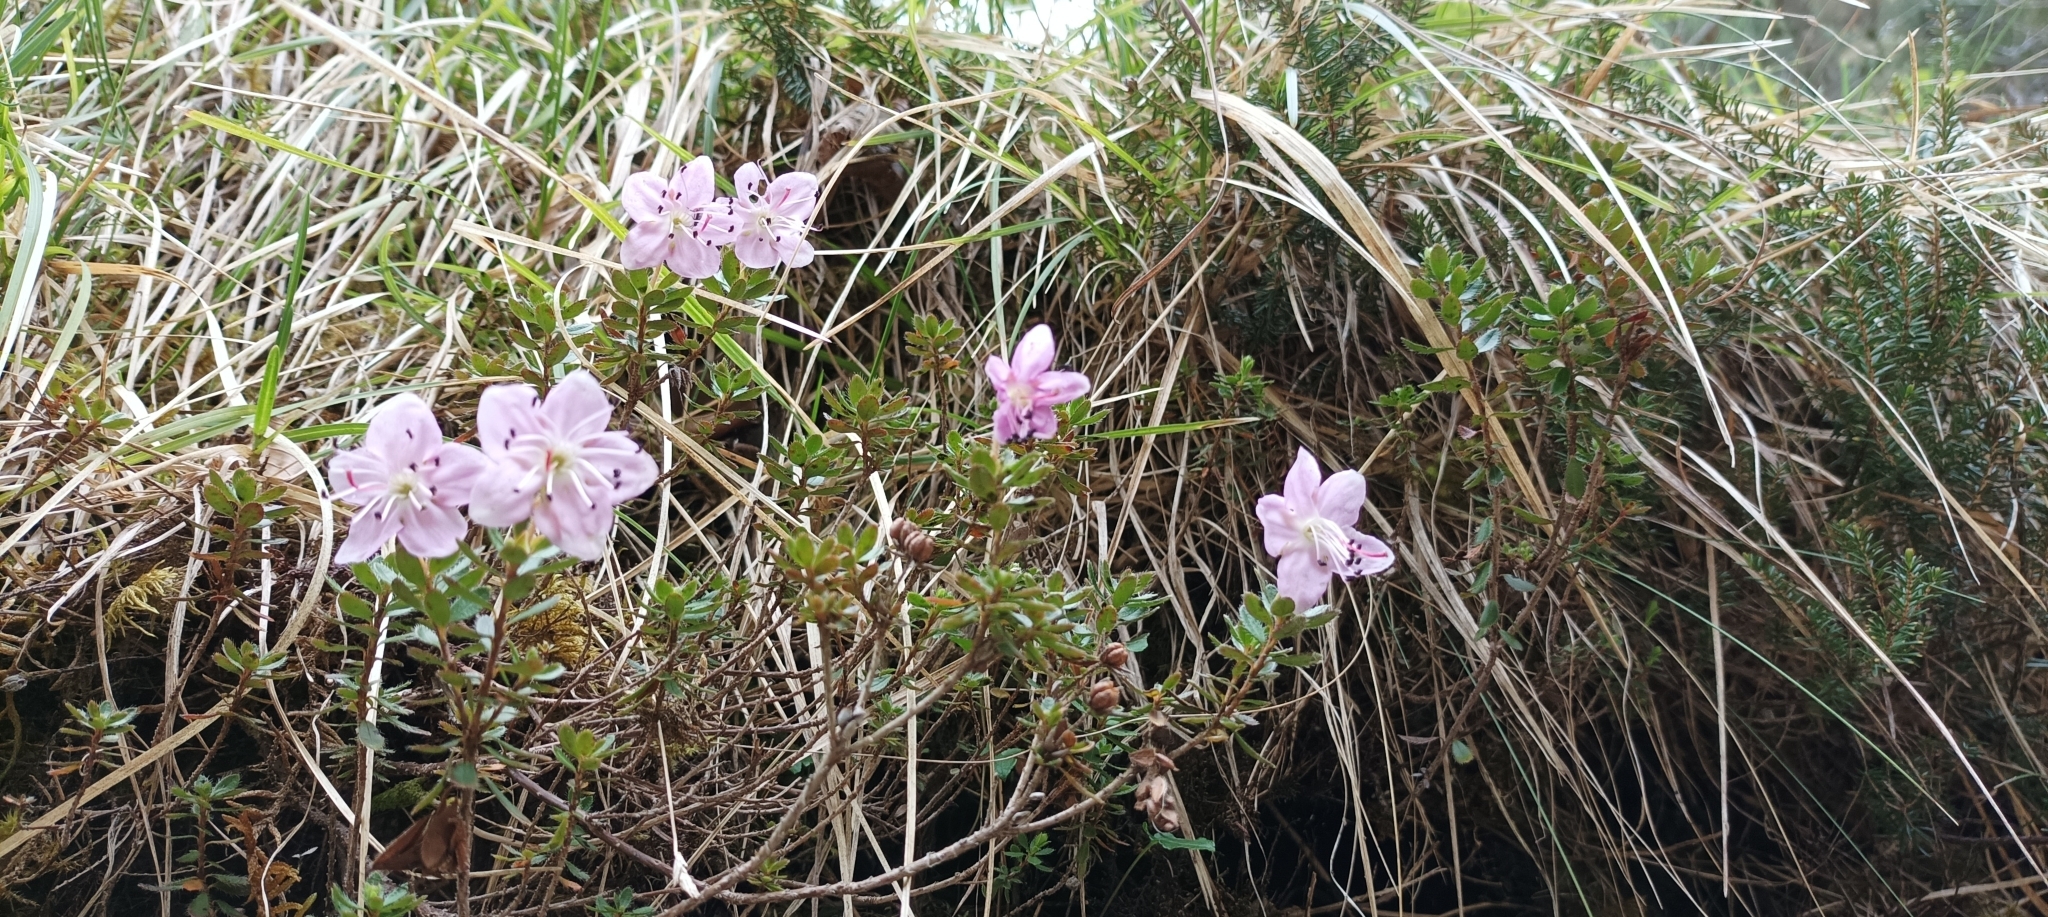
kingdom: Plantae
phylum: Tracheophyta
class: Magnoliopsida
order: Ericales
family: Ericaceae
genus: Rhodothamnus
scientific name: Rhodothamnus chamaecistus
